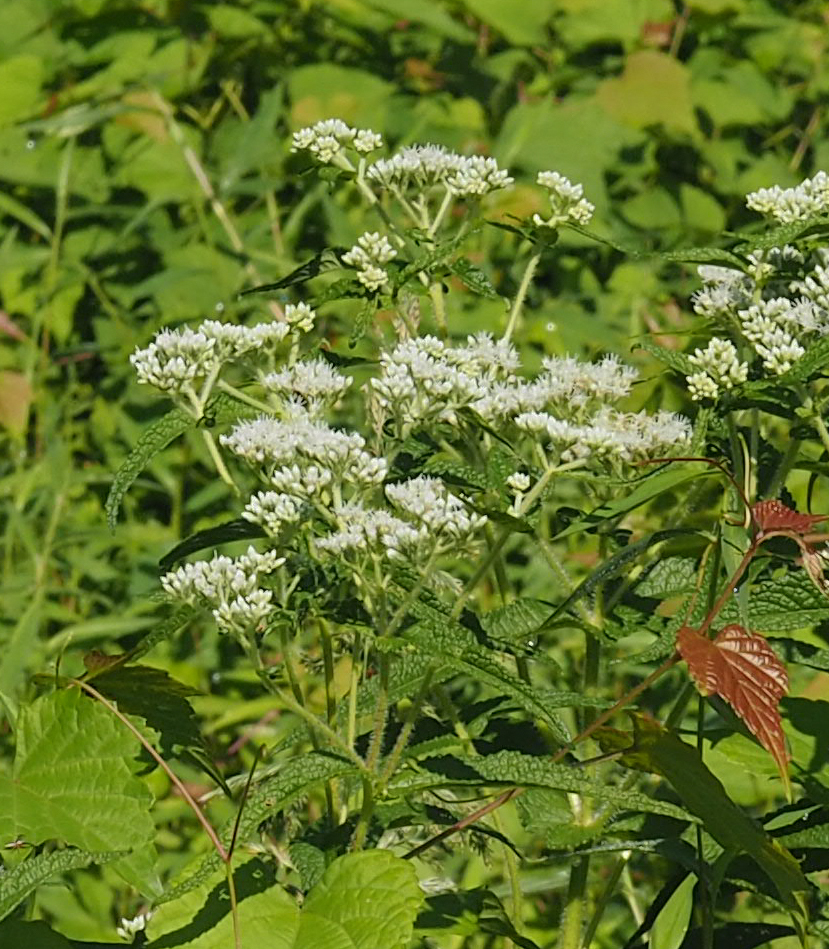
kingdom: Plantae
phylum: Tracheophyta
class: Magnoliopsida
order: Asterales
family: Asteraceae
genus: Eupatorium
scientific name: Eupatorium perfoliatum
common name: Boneset
